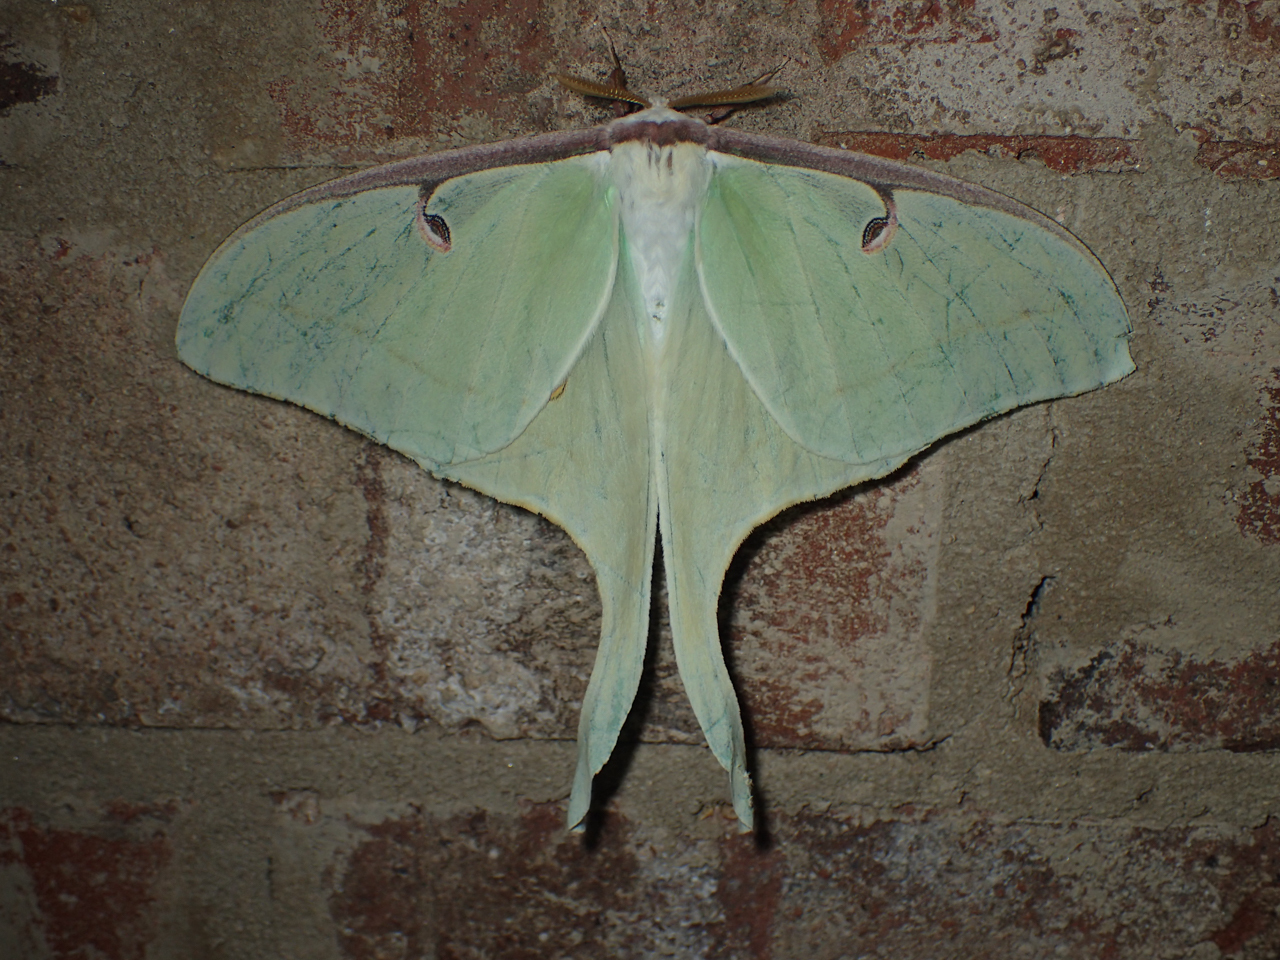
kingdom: Animalia
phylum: Arthropoda
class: Insecta
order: Lepidoptera
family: Saturniidae
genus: Actias
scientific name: Actias luna
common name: Luna moth
